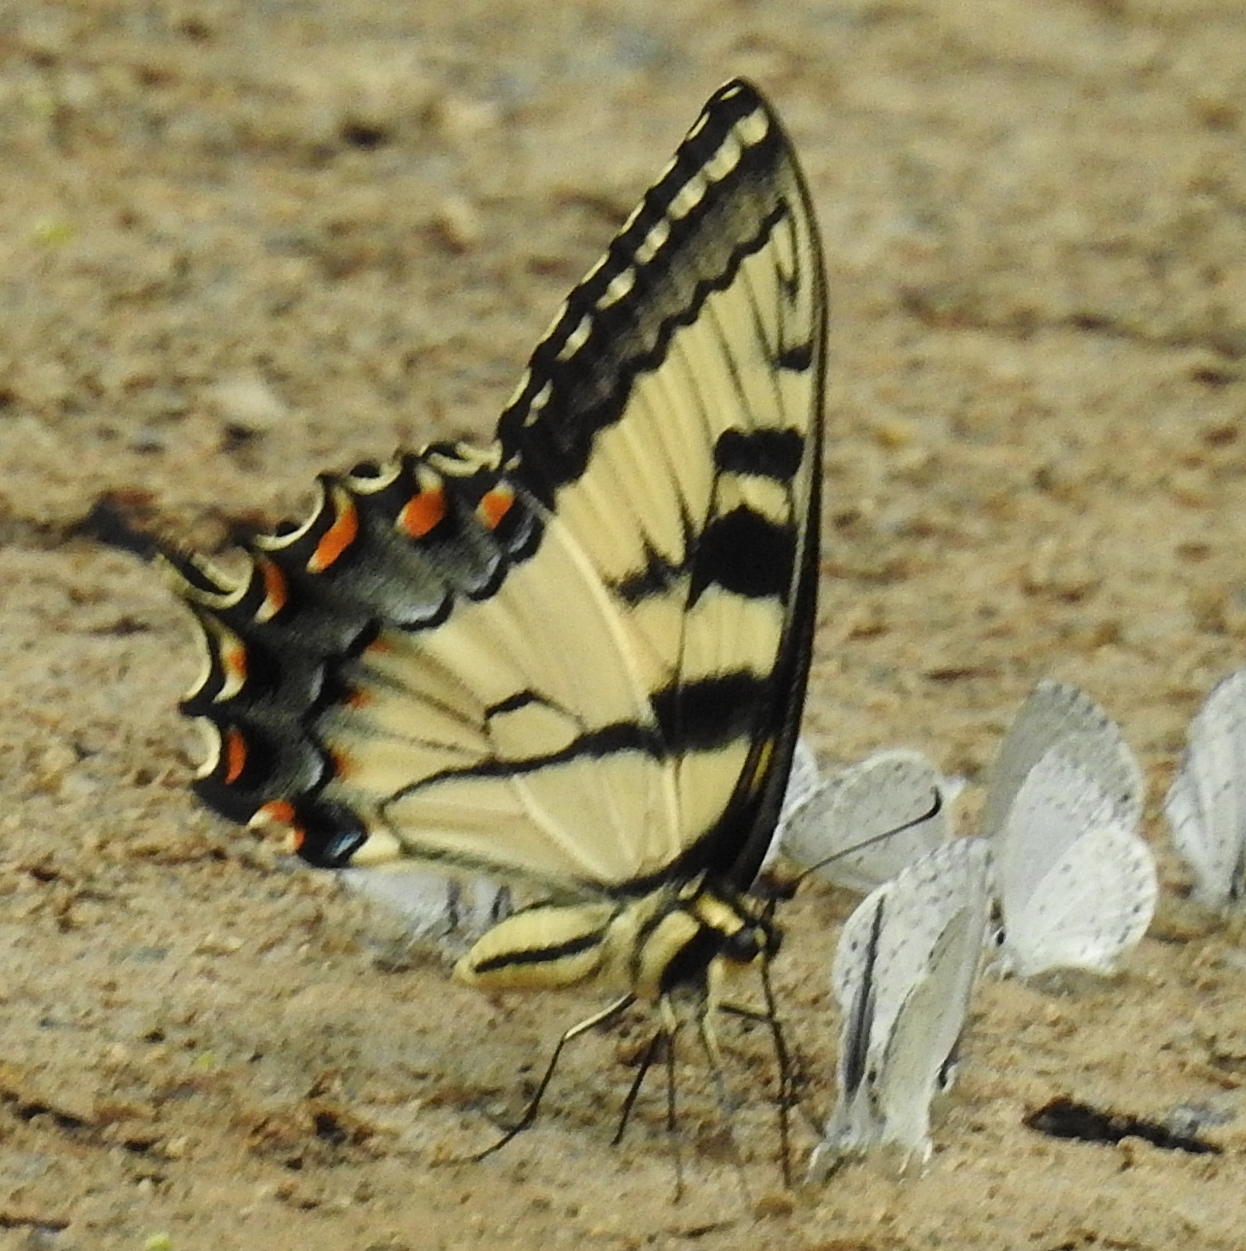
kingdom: Animalia
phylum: Arthropoda
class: Insecta
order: Lepidoptera
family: Papilionidae
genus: Papilio
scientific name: Papilio glaucus
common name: Tiger swallowtail
